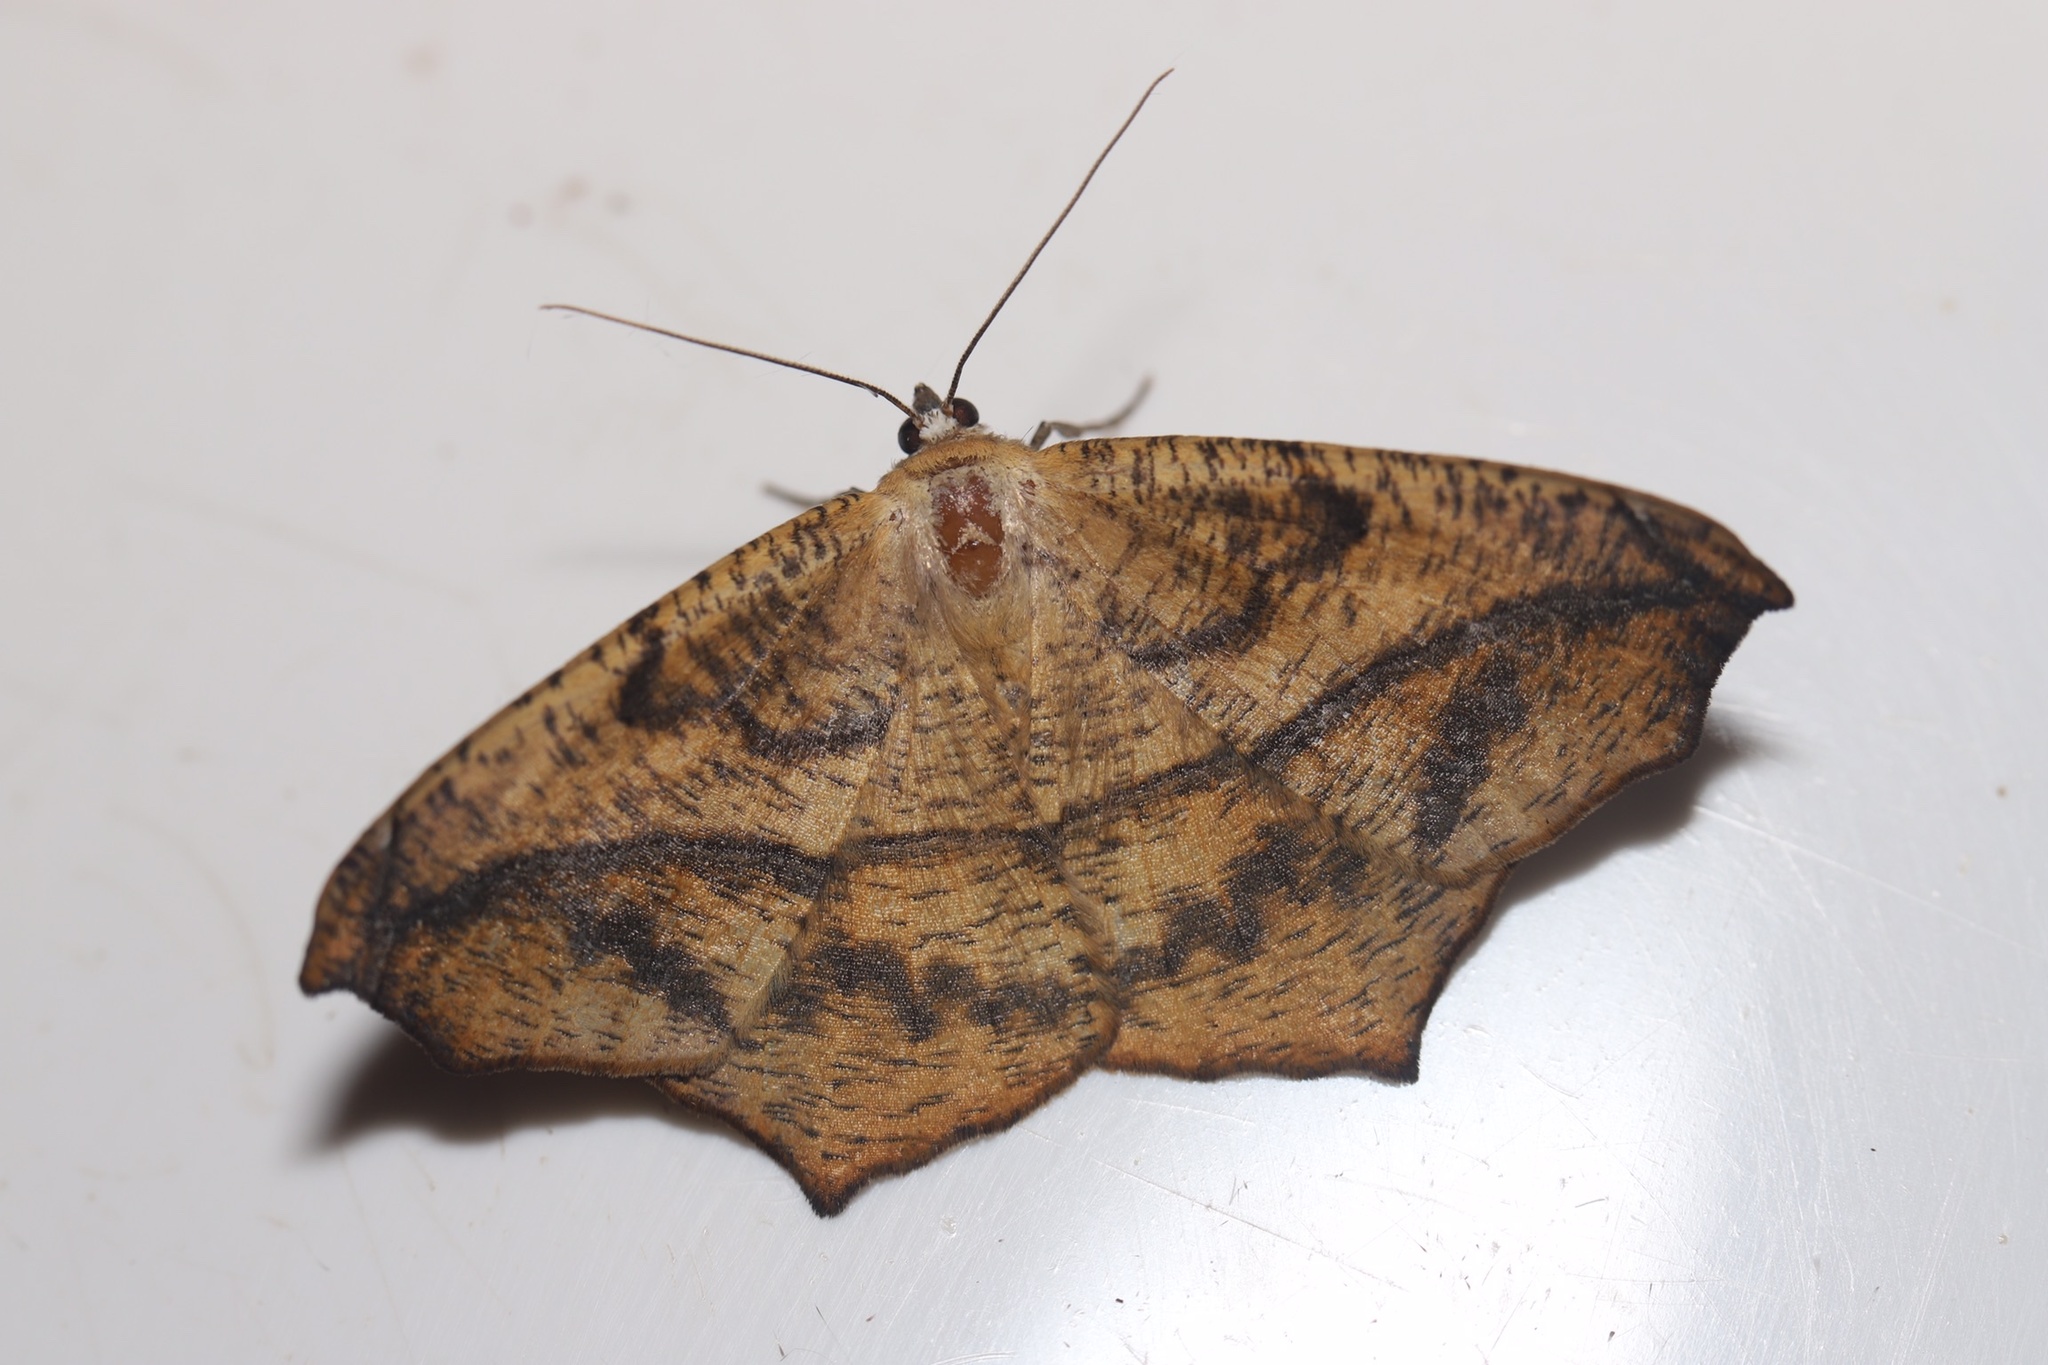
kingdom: Animalia
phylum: Arthropoda
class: Insecta
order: Lepidoptera
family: Geometridae
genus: Prochoerodes
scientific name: Prochoerodes lineola
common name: Large maple spanworm
